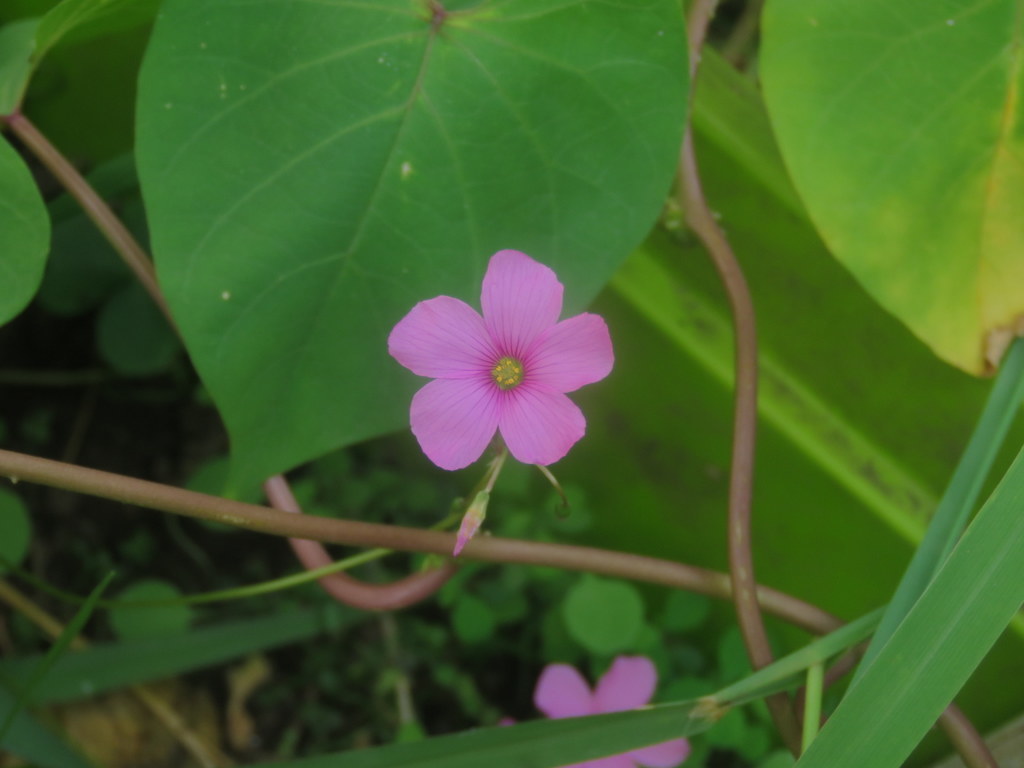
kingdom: Plantae
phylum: Tracheophyta
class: Magnoliopsida
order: Oxalidales
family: Oxalidaceae
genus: Oxalis
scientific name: Oxalis articulata
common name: Pink-sorrel
